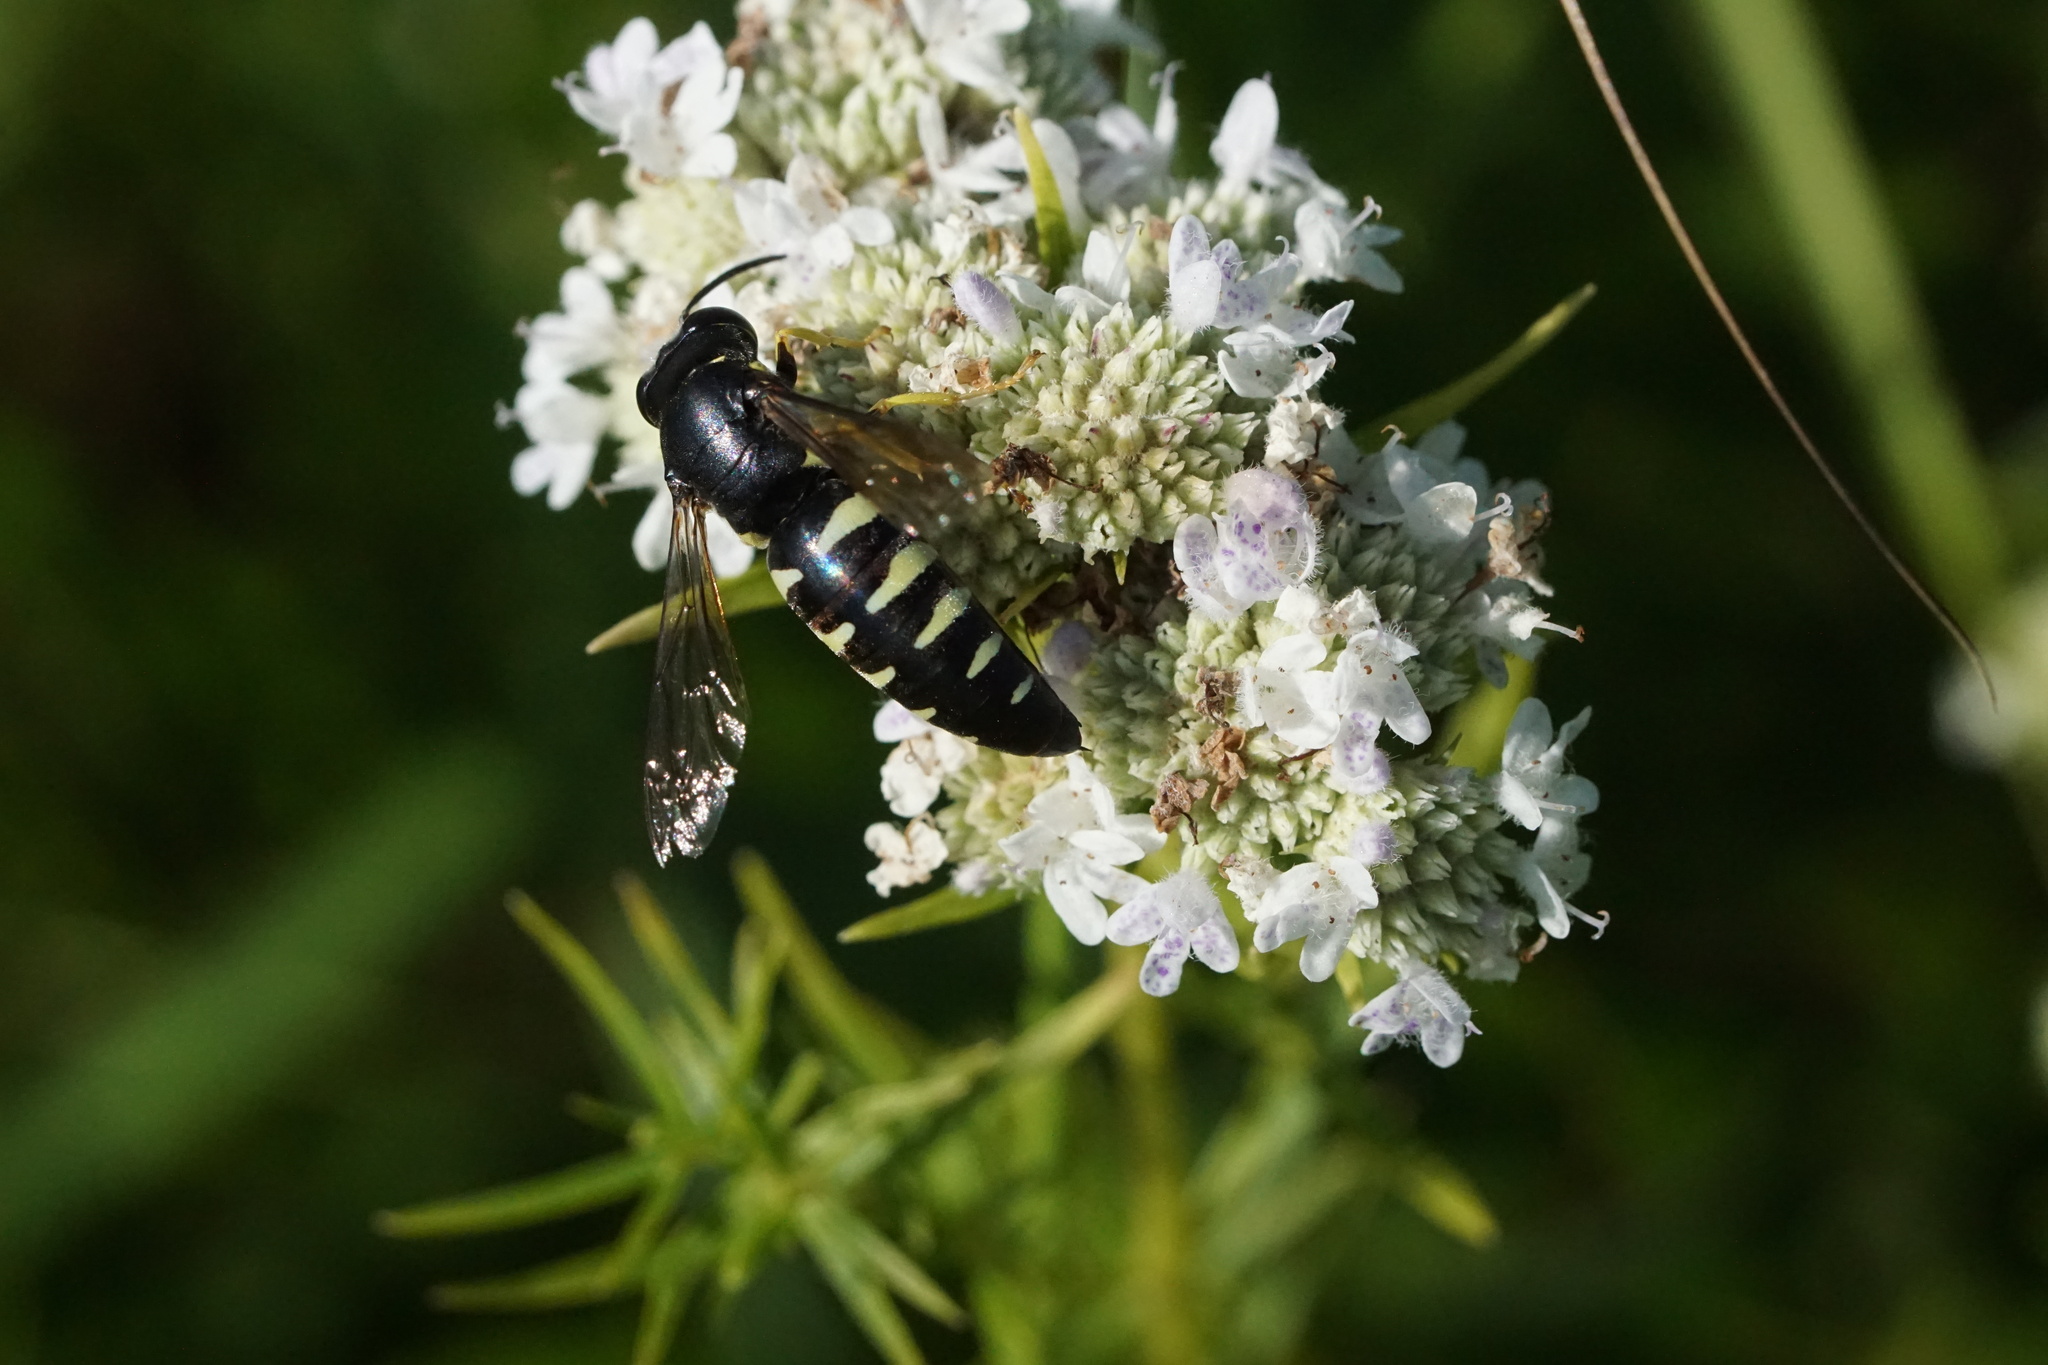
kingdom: Animalia
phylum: Arthropoda
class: Insecta
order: Hymenoptera
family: Crabronidae
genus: Bicyrtes
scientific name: Bicyrtes quadrifasciatus
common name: Four-banded stink bug hunter wasp
